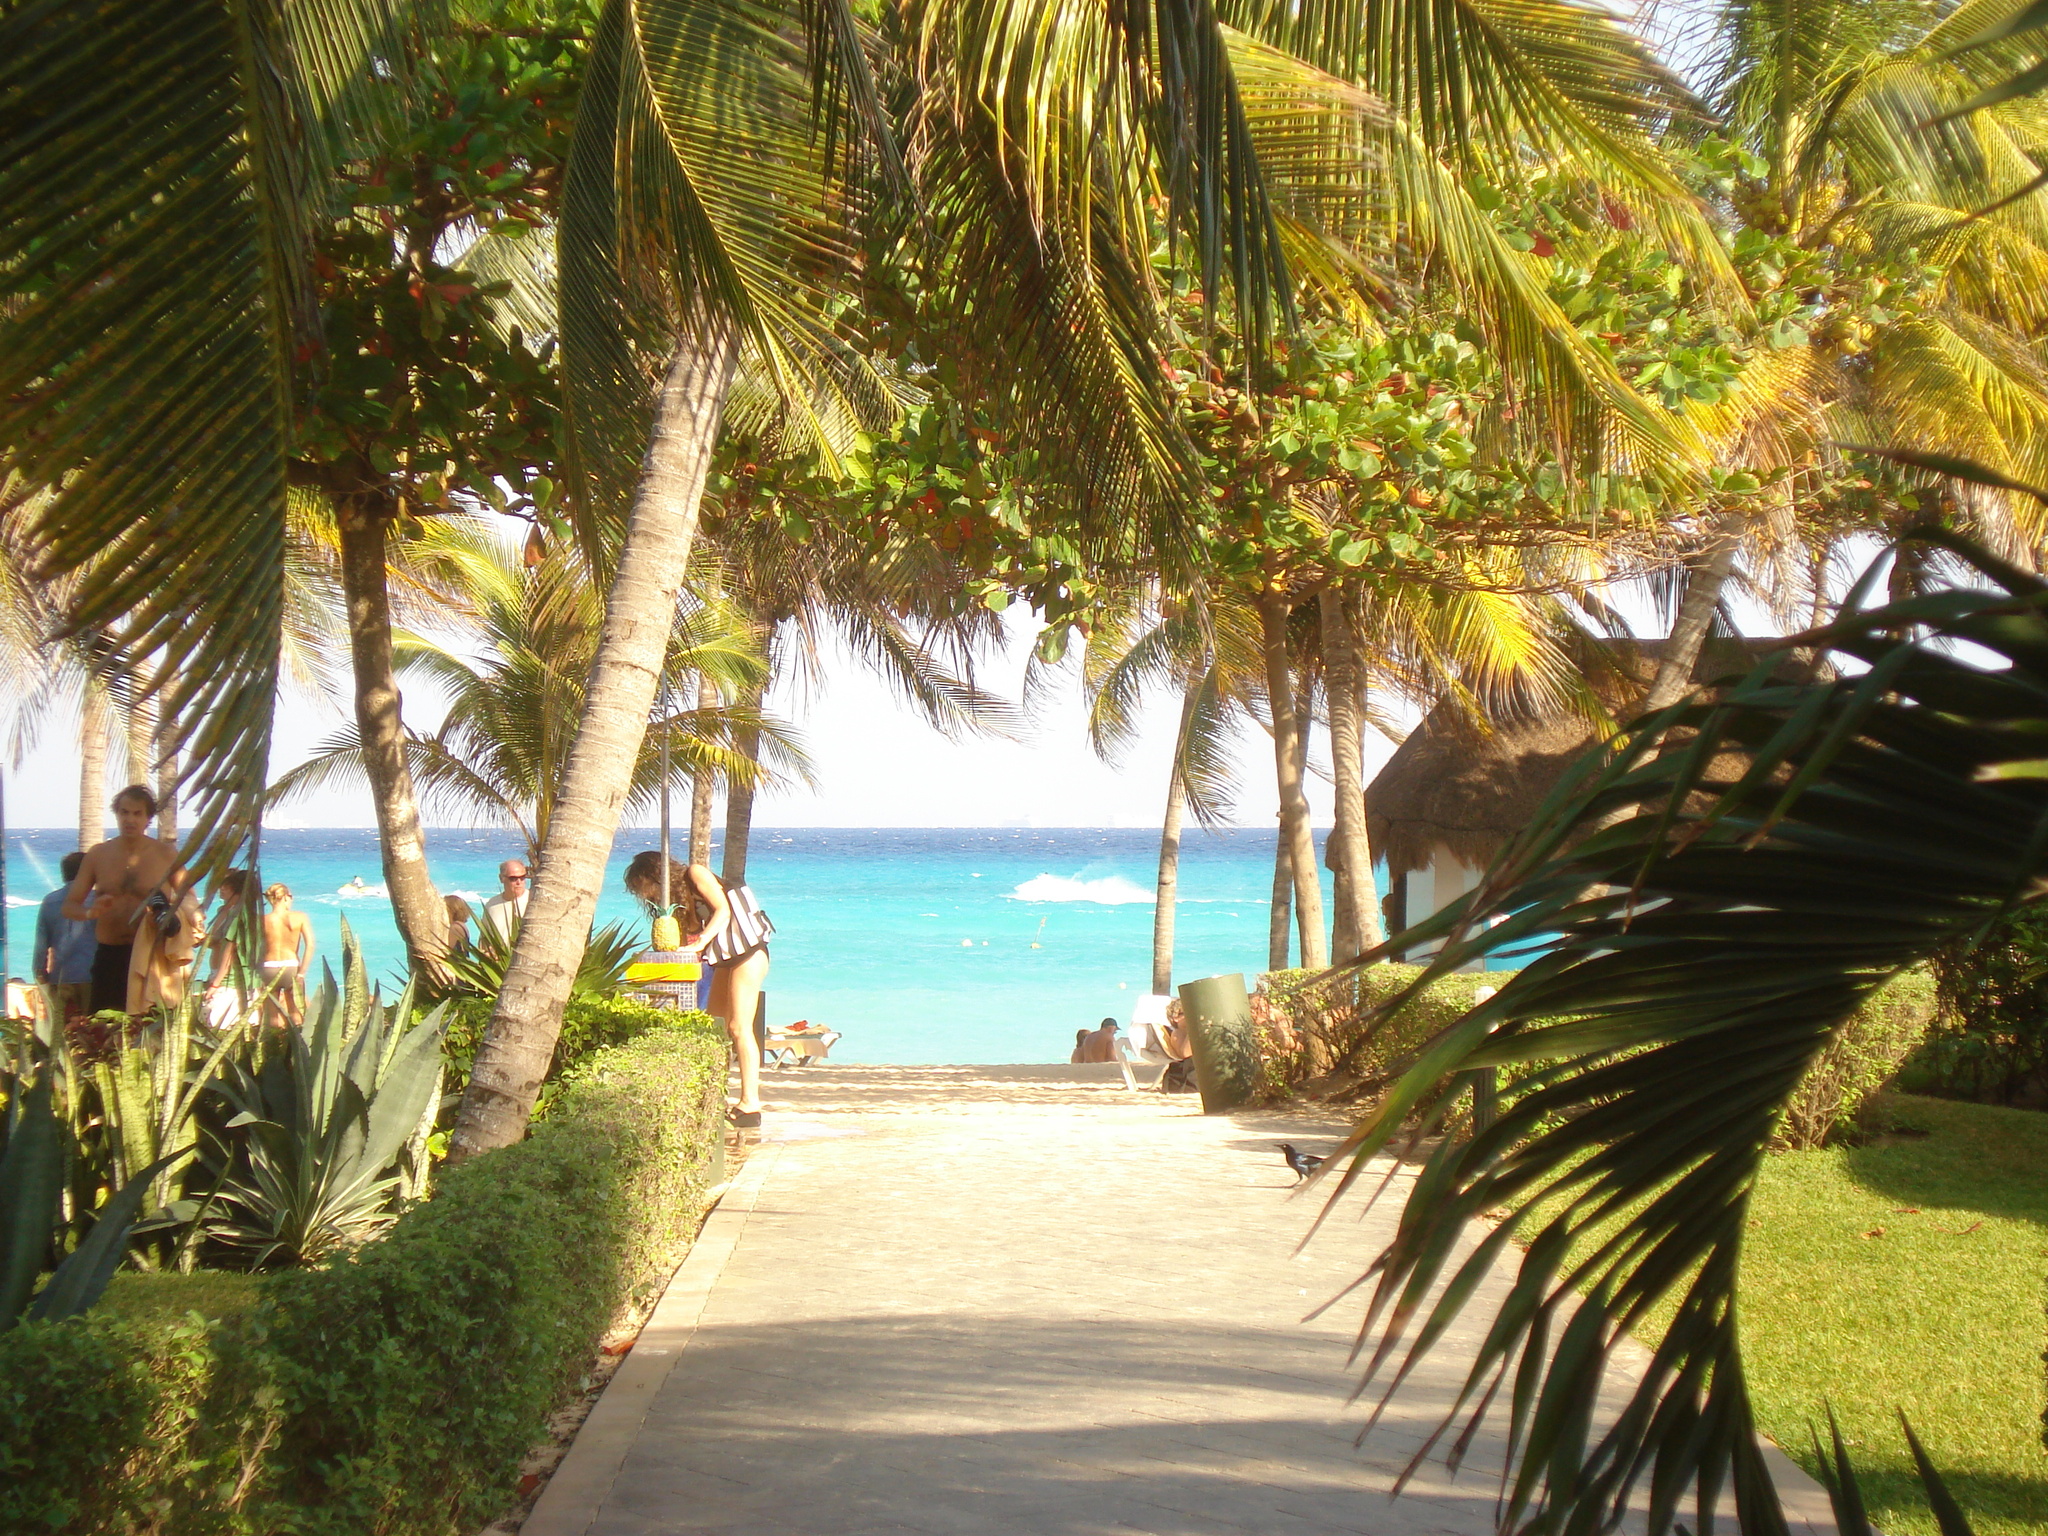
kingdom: Animalia
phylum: Chordata
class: Aves
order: Passeriformes
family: Icteridae
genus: Quiscalus
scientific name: Quiscalus mexicanus
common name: Great-tailed grackle
